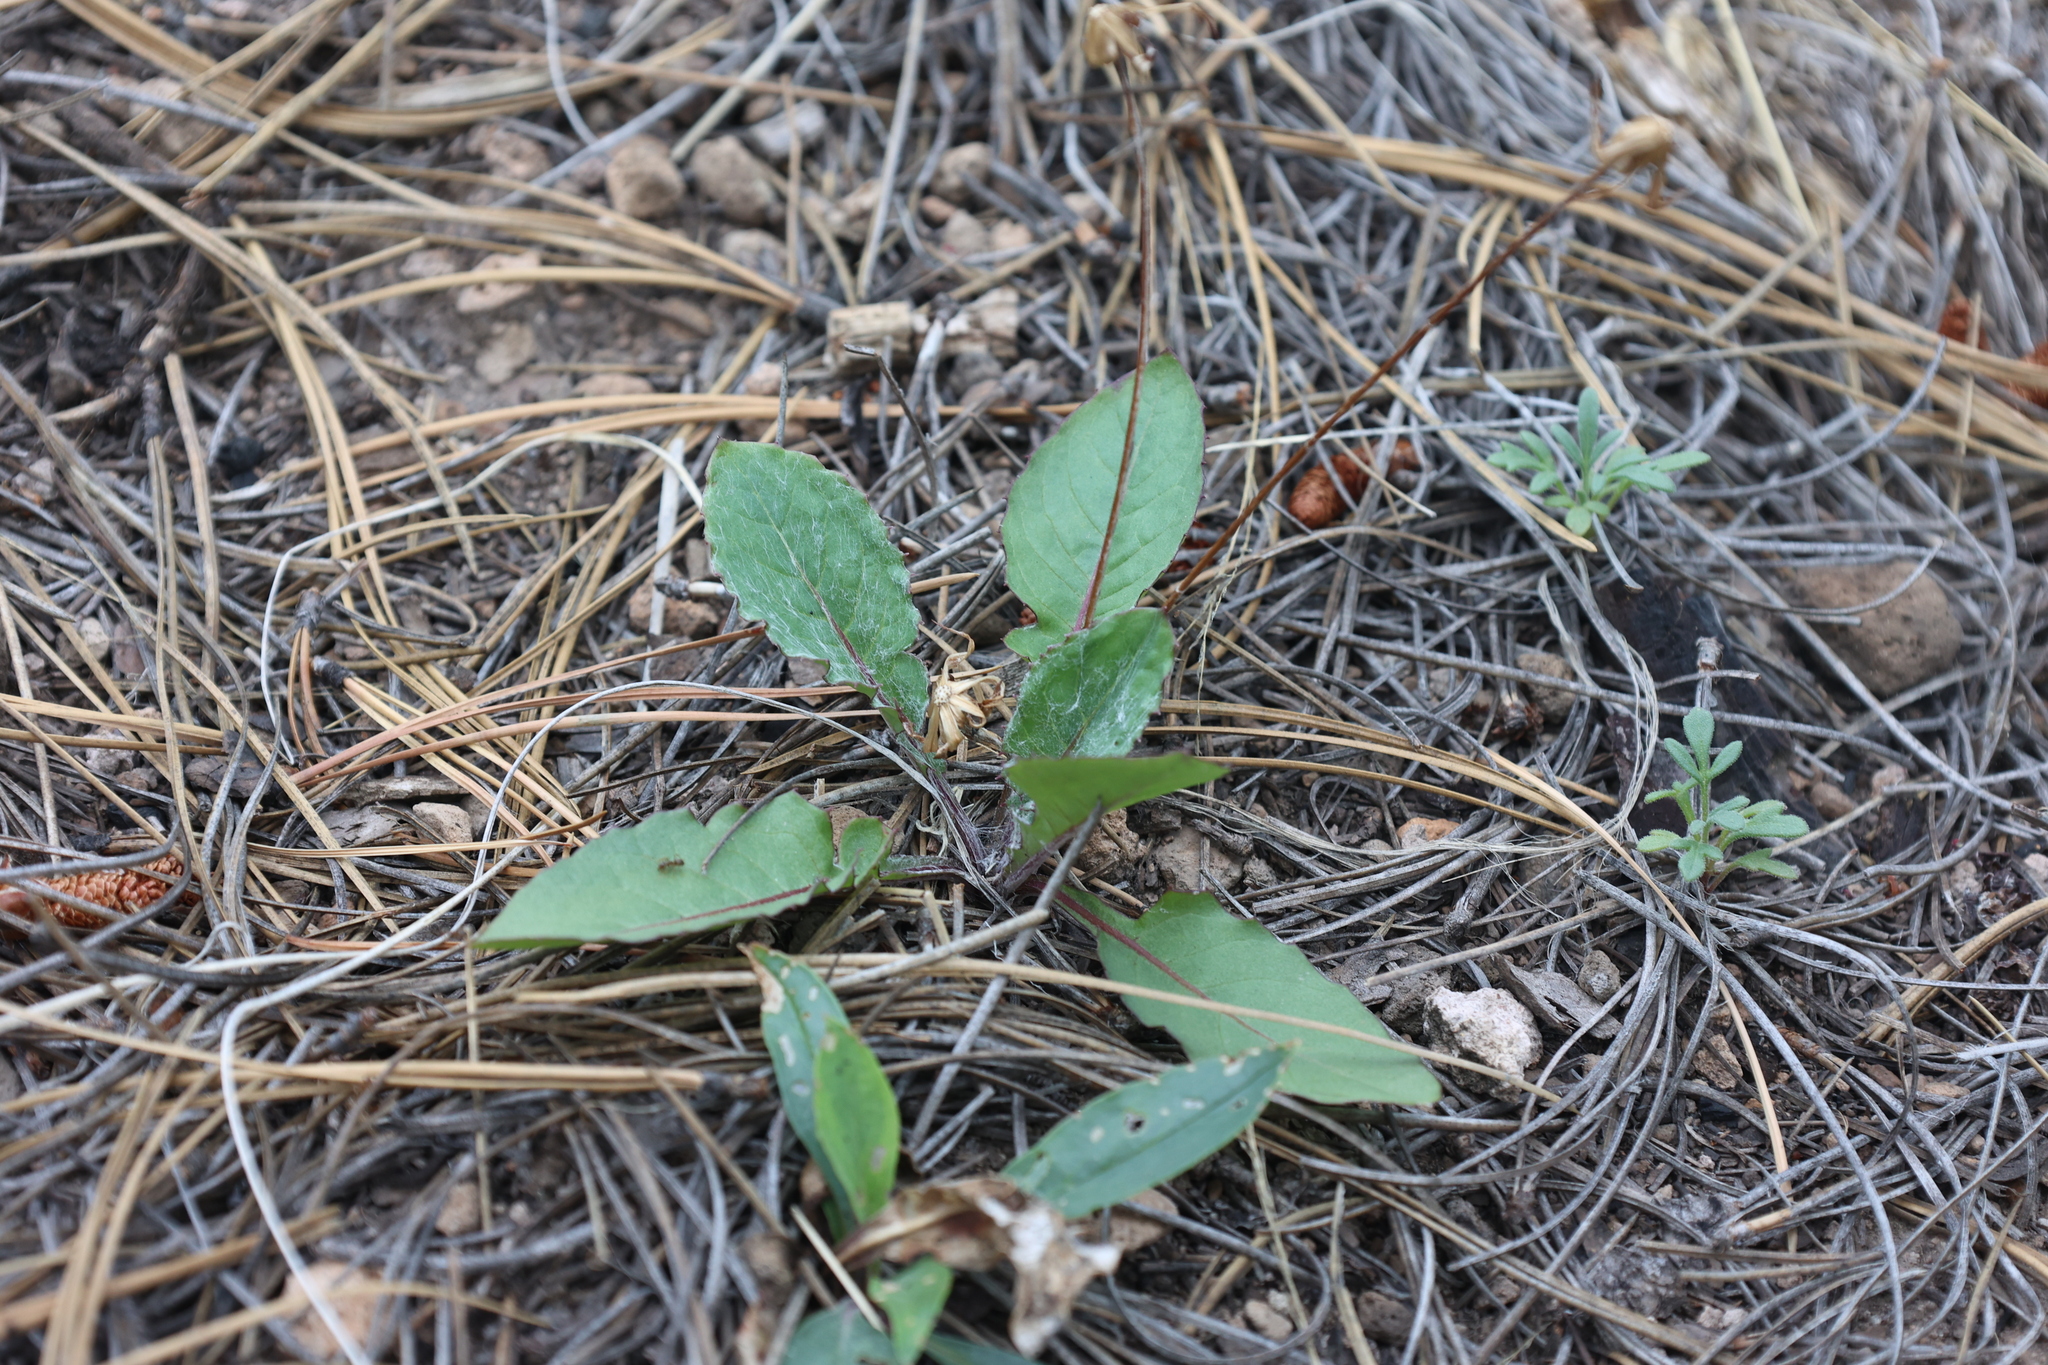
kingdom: Plantae
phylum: Tracheophyta
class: Magnoliopsida
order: Asterales
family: Asteraceae
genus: Leibnitzia
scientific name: Leibnitzia lyrata
